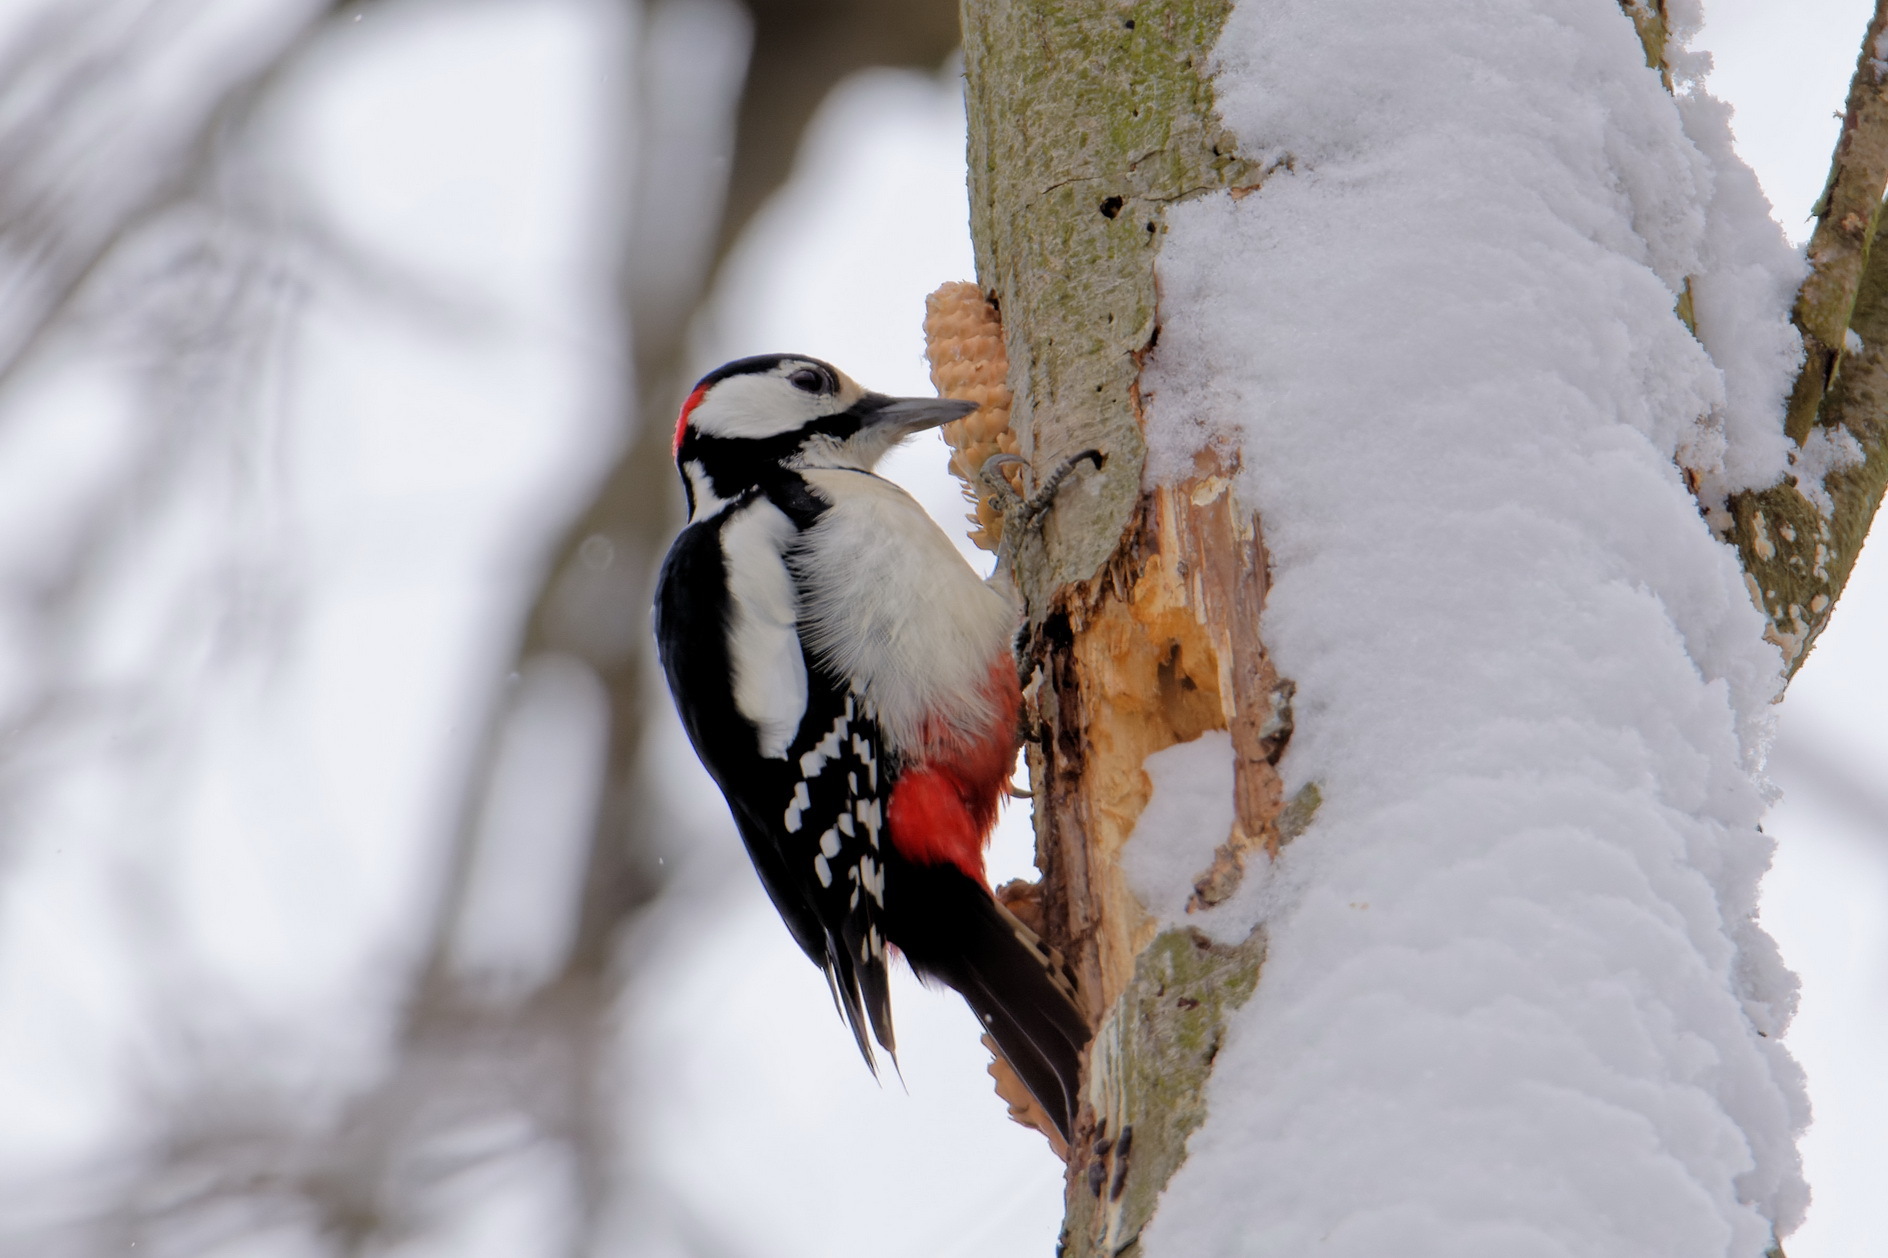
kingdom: Animalia
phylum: Chordata
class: Aves
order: Piciformes
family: Picidae
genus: Dendrocopos
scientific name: Dendrocopos major
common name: Great spotted woodpecker
